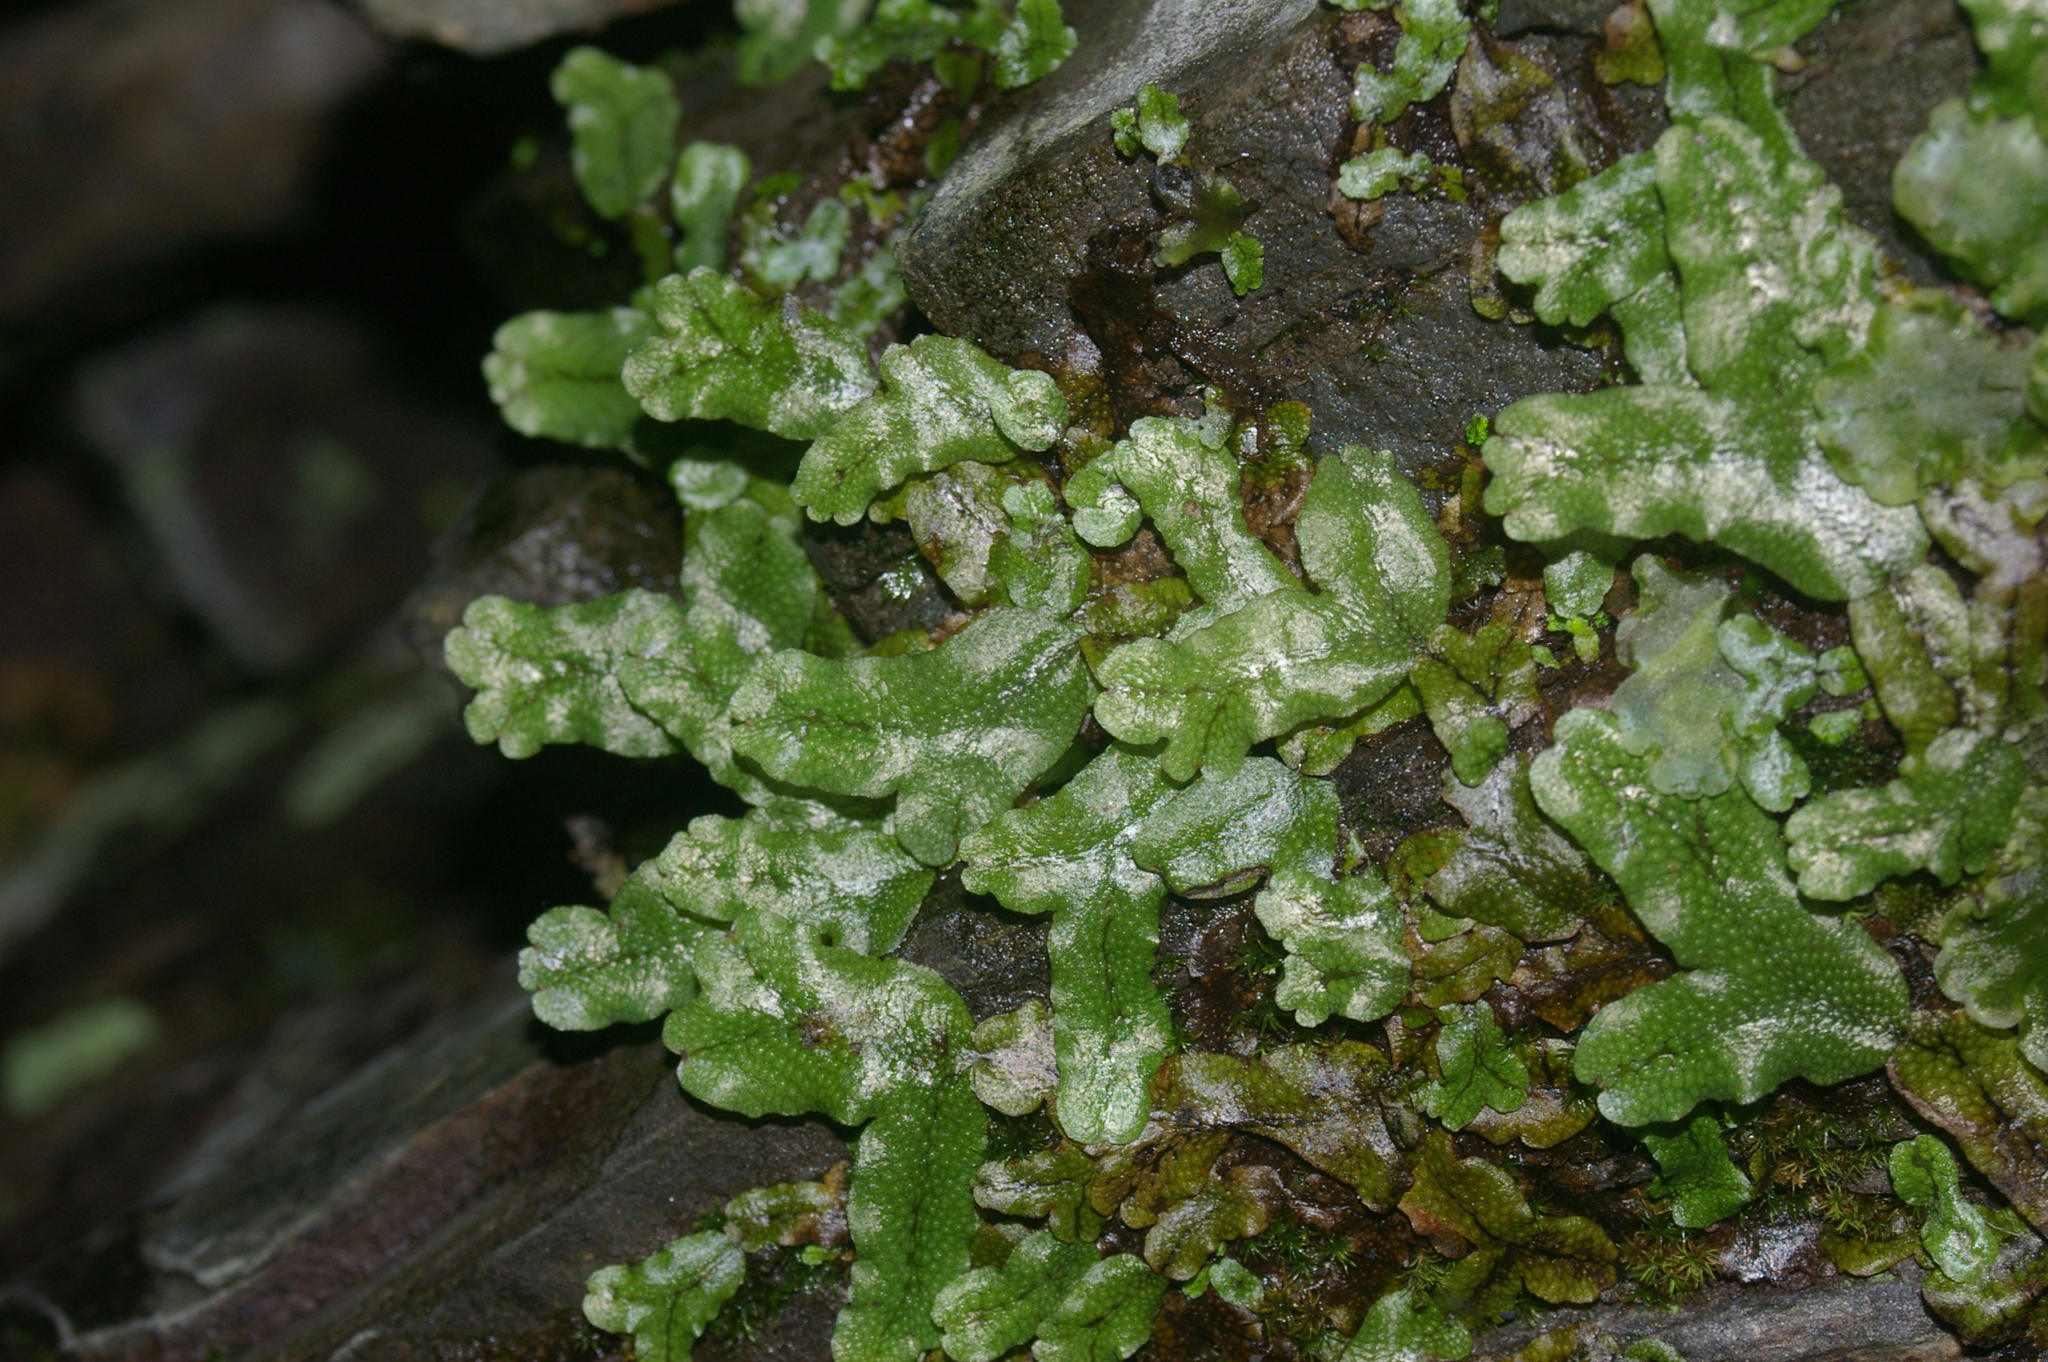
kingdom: Plantae
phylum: Marchantiophyta
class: Marchantiopsida
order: Marchantiales
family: Conocephalaceae
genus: Conocephalum
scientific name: Conocephalum conicum
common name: Great scented liverwort
